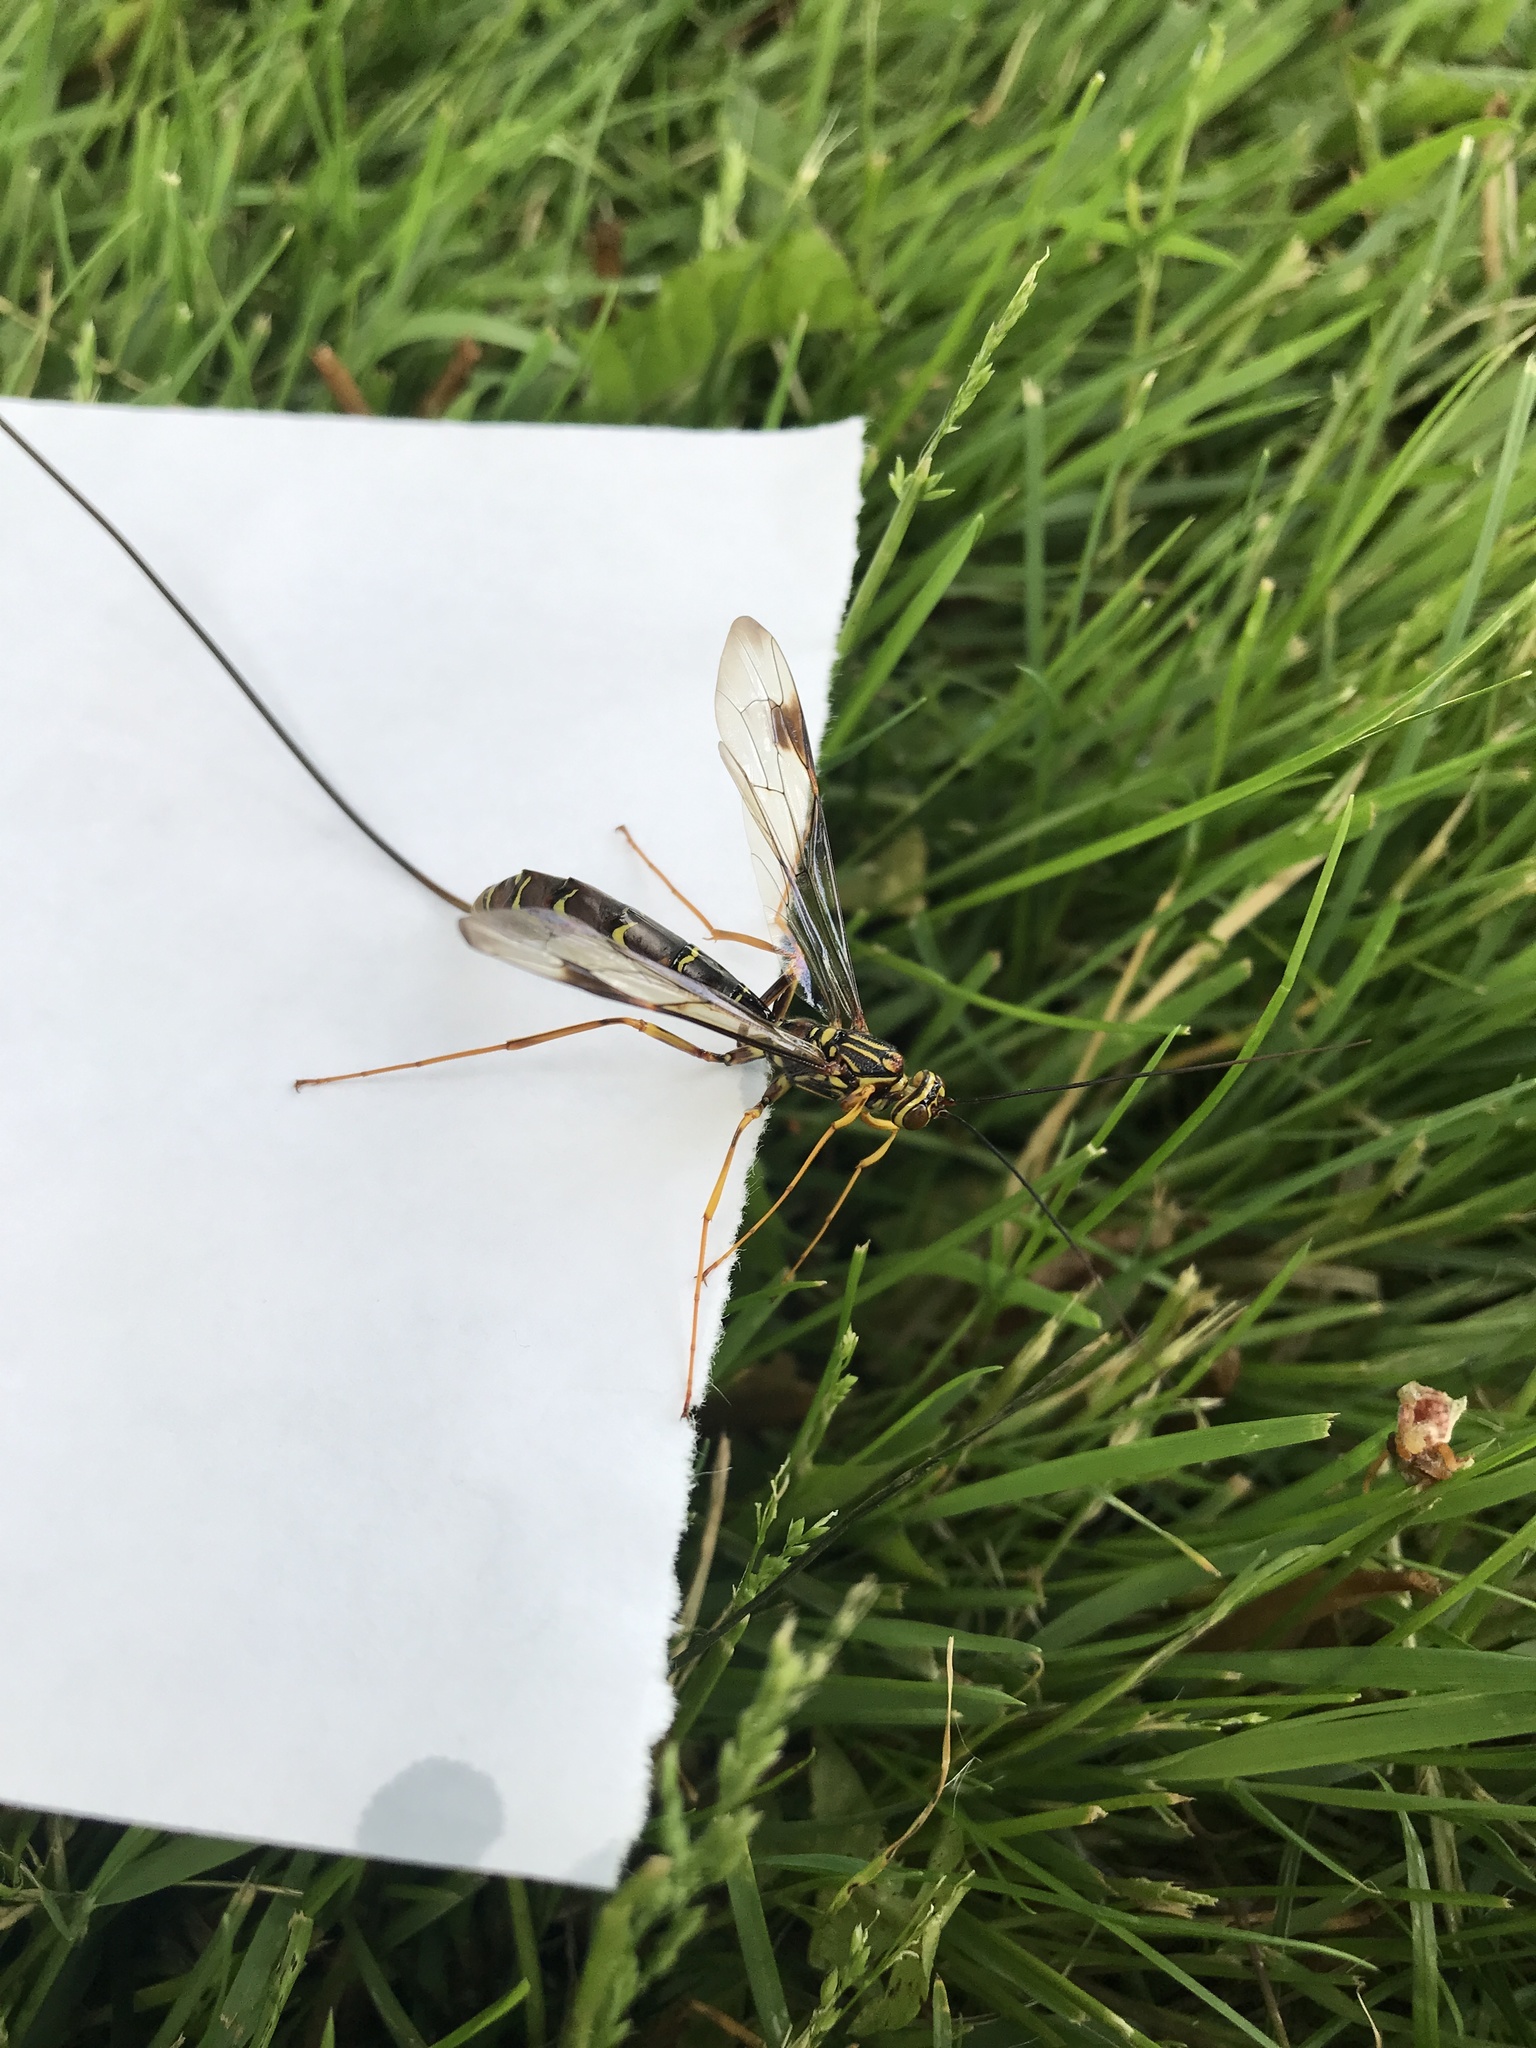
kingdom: Animalia
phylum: Arthropoda
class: Insecta
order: Hymenoptera
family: Ichneumonidae
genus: Megarhyssa
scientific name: Megarhyssa macrura
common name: Long-tailed giant ichneumonid wasp
